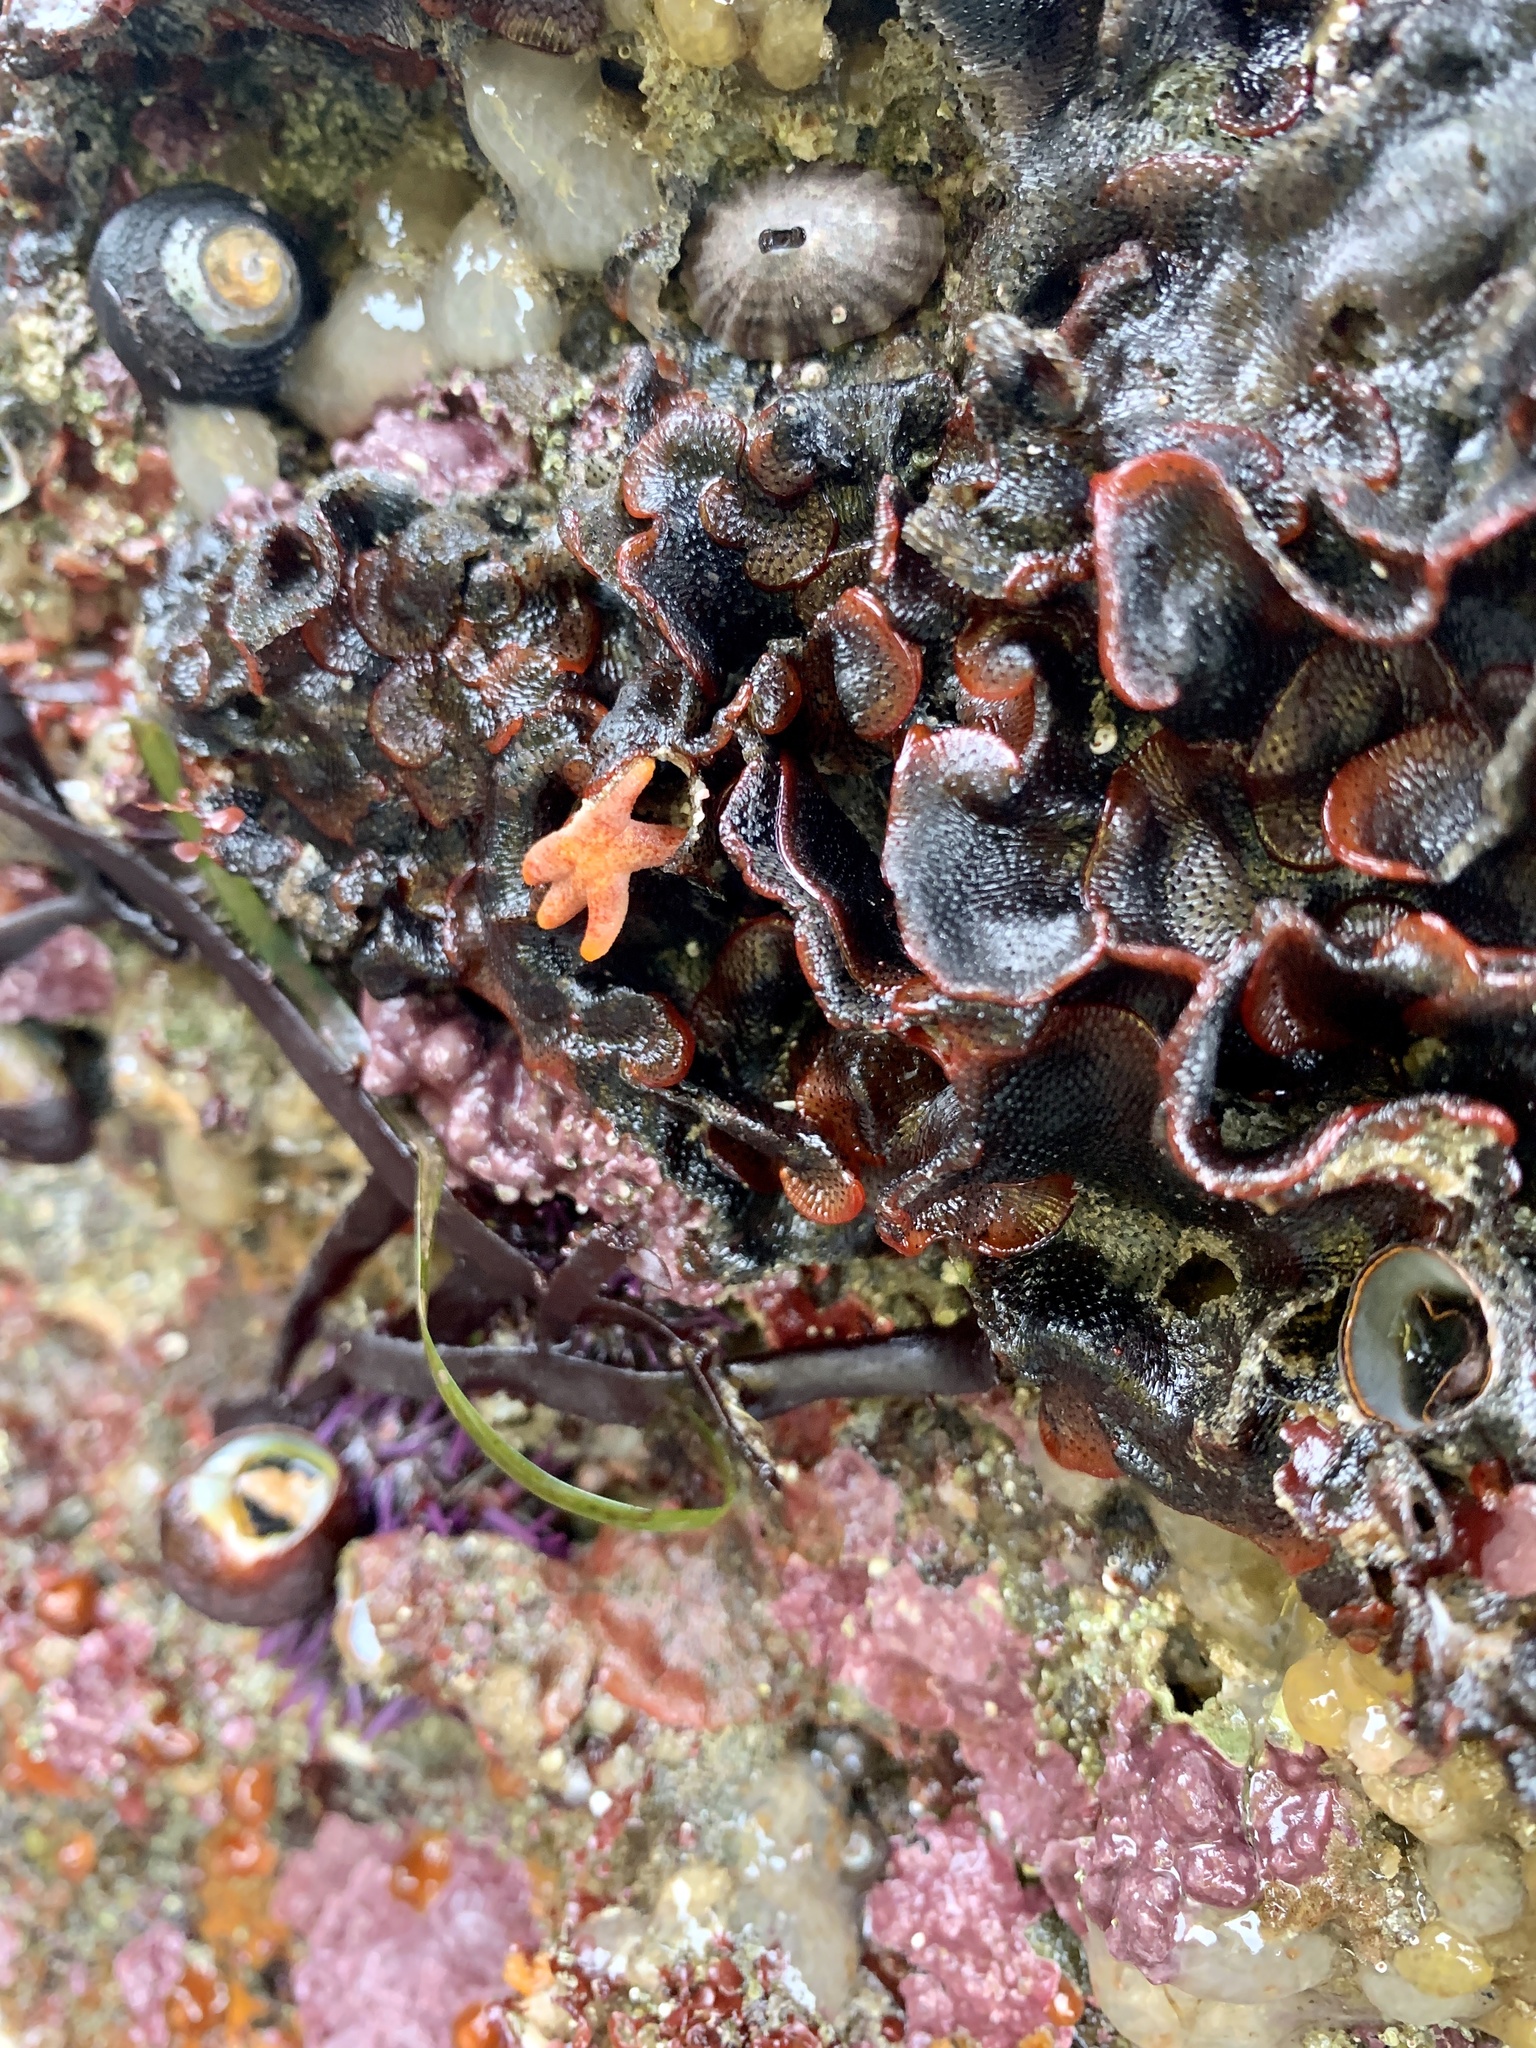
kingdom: Animalia
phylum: Bryozoa
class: Gymnolaemata
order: Cheilostomatida
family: Watersiporidae
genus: Watersipora
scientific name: Watersipora subtorquata
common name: Bryozoan
